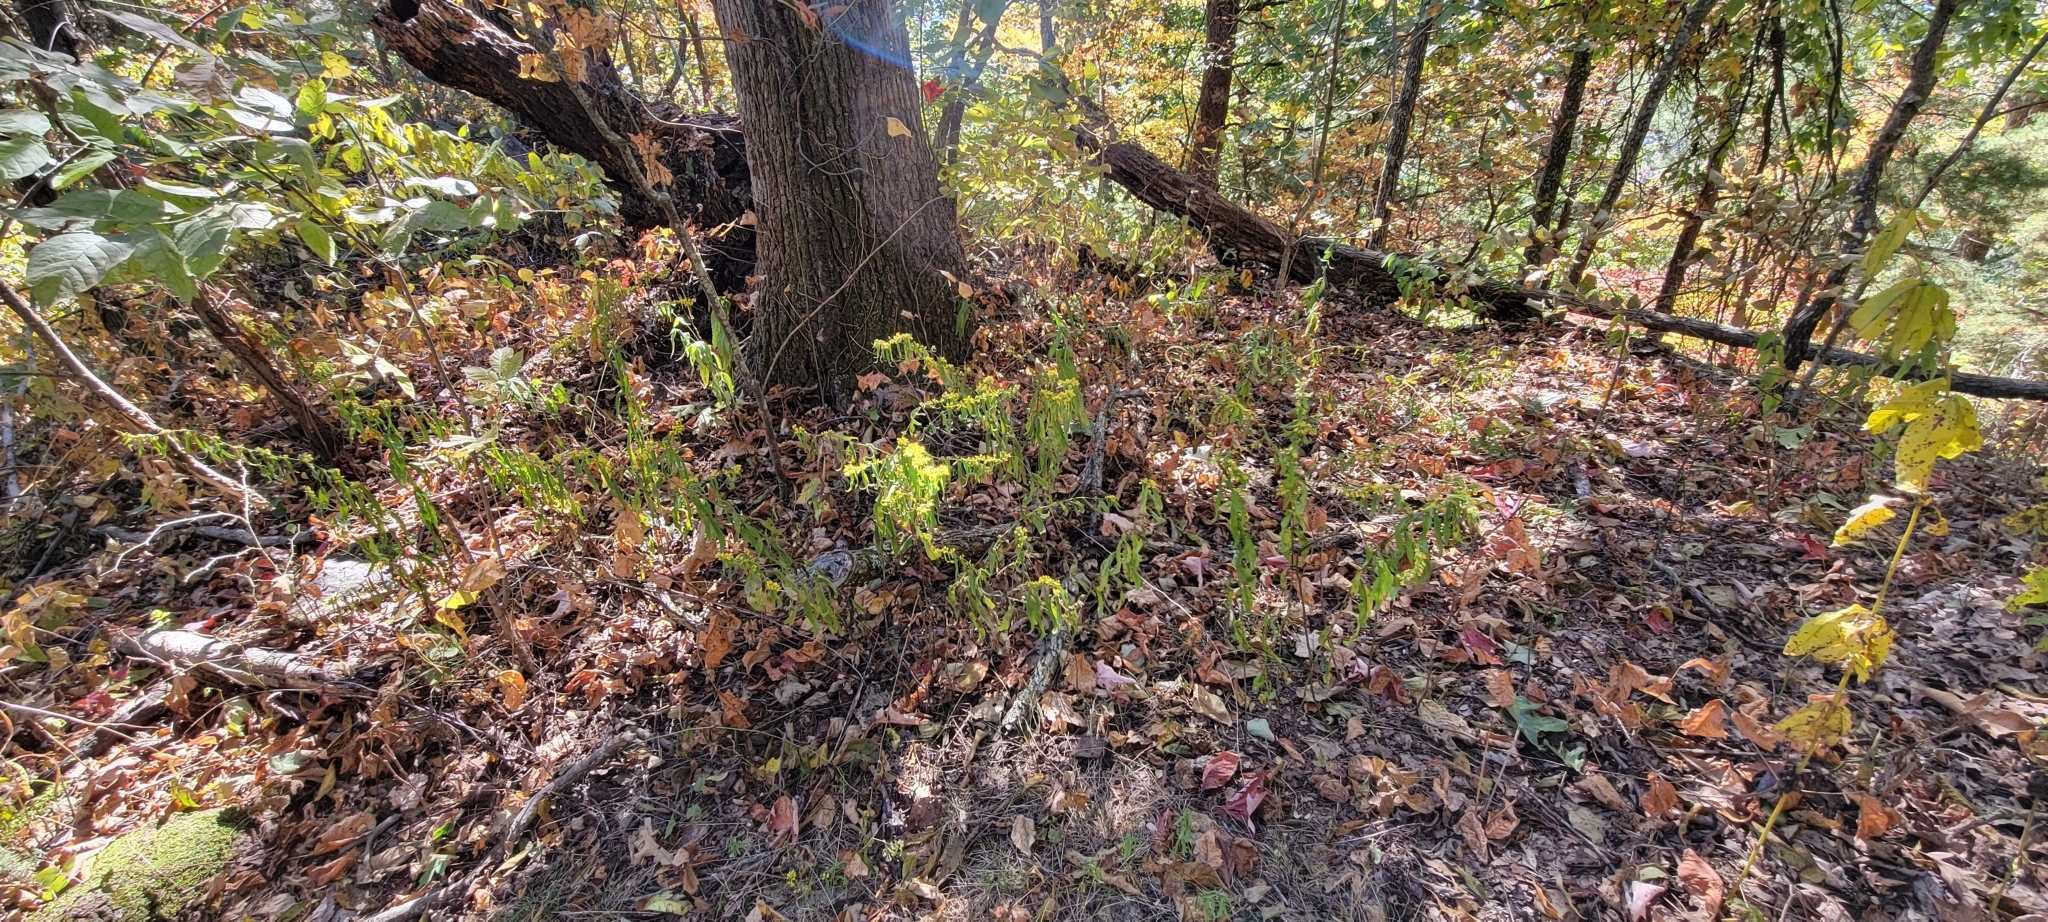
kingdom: Plantae
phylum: Tracheophyta
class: Magnoliopsida
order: Asterales
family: Asteraceae
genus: Solidago
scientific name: Solidago caesia
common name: Woodland goldenrod
